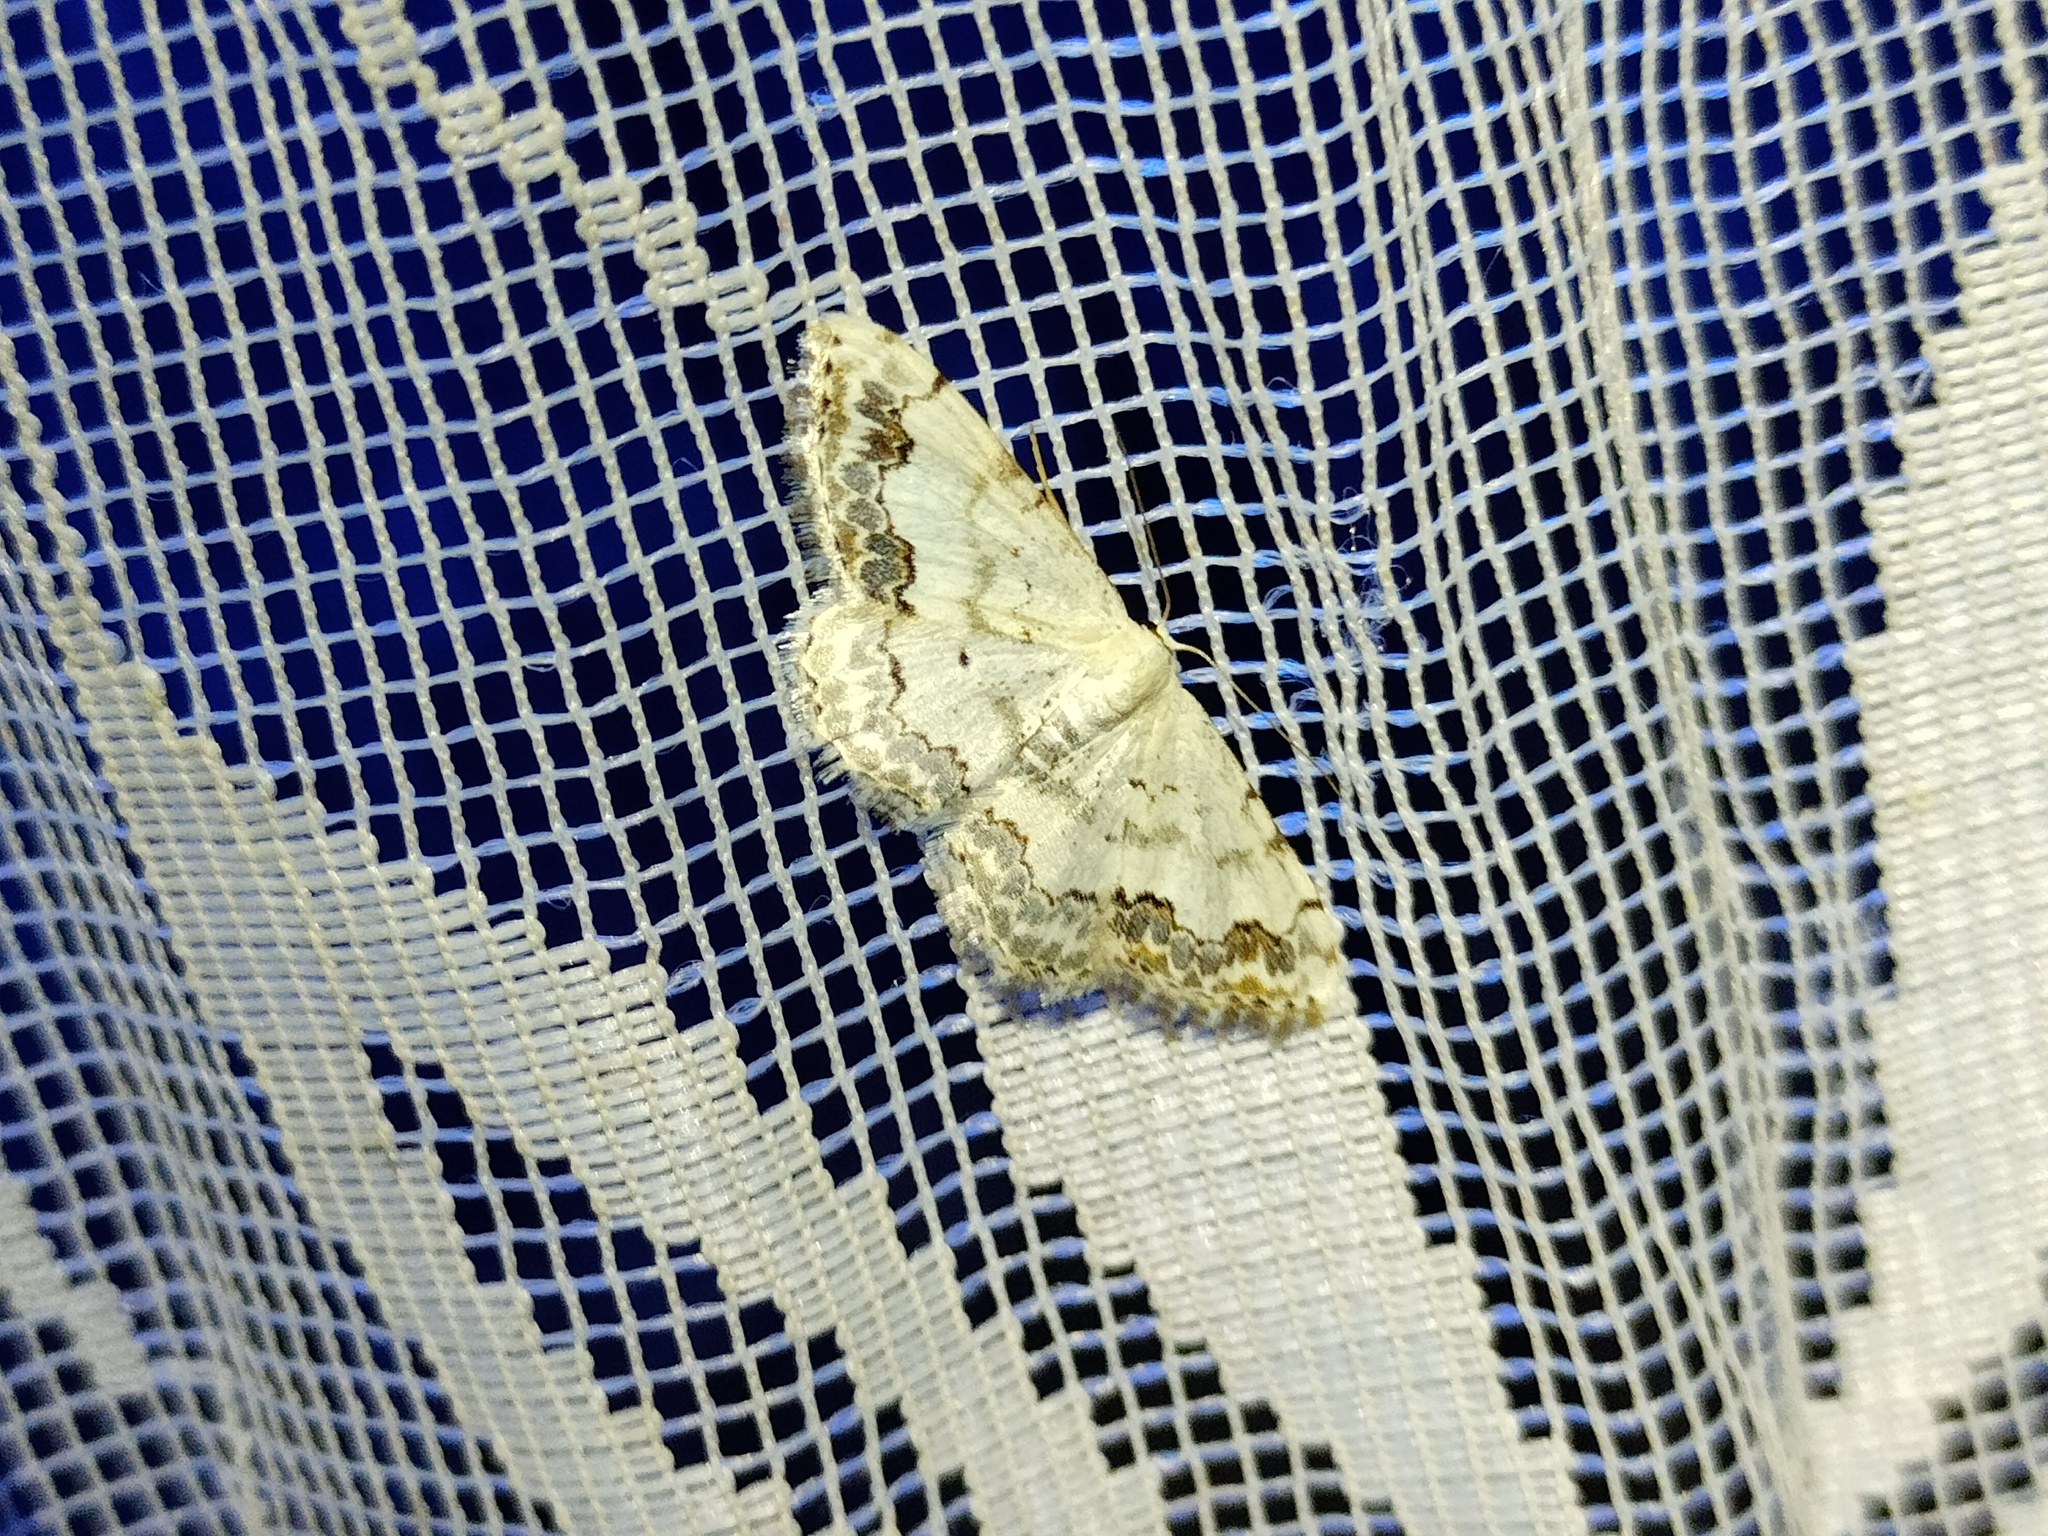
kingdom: Animalia
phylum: Arthropoda
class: Insecta
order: Lepidoptera
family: Geometridae
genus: Scopula
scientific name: Scopula decorata
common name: Middle lace border
